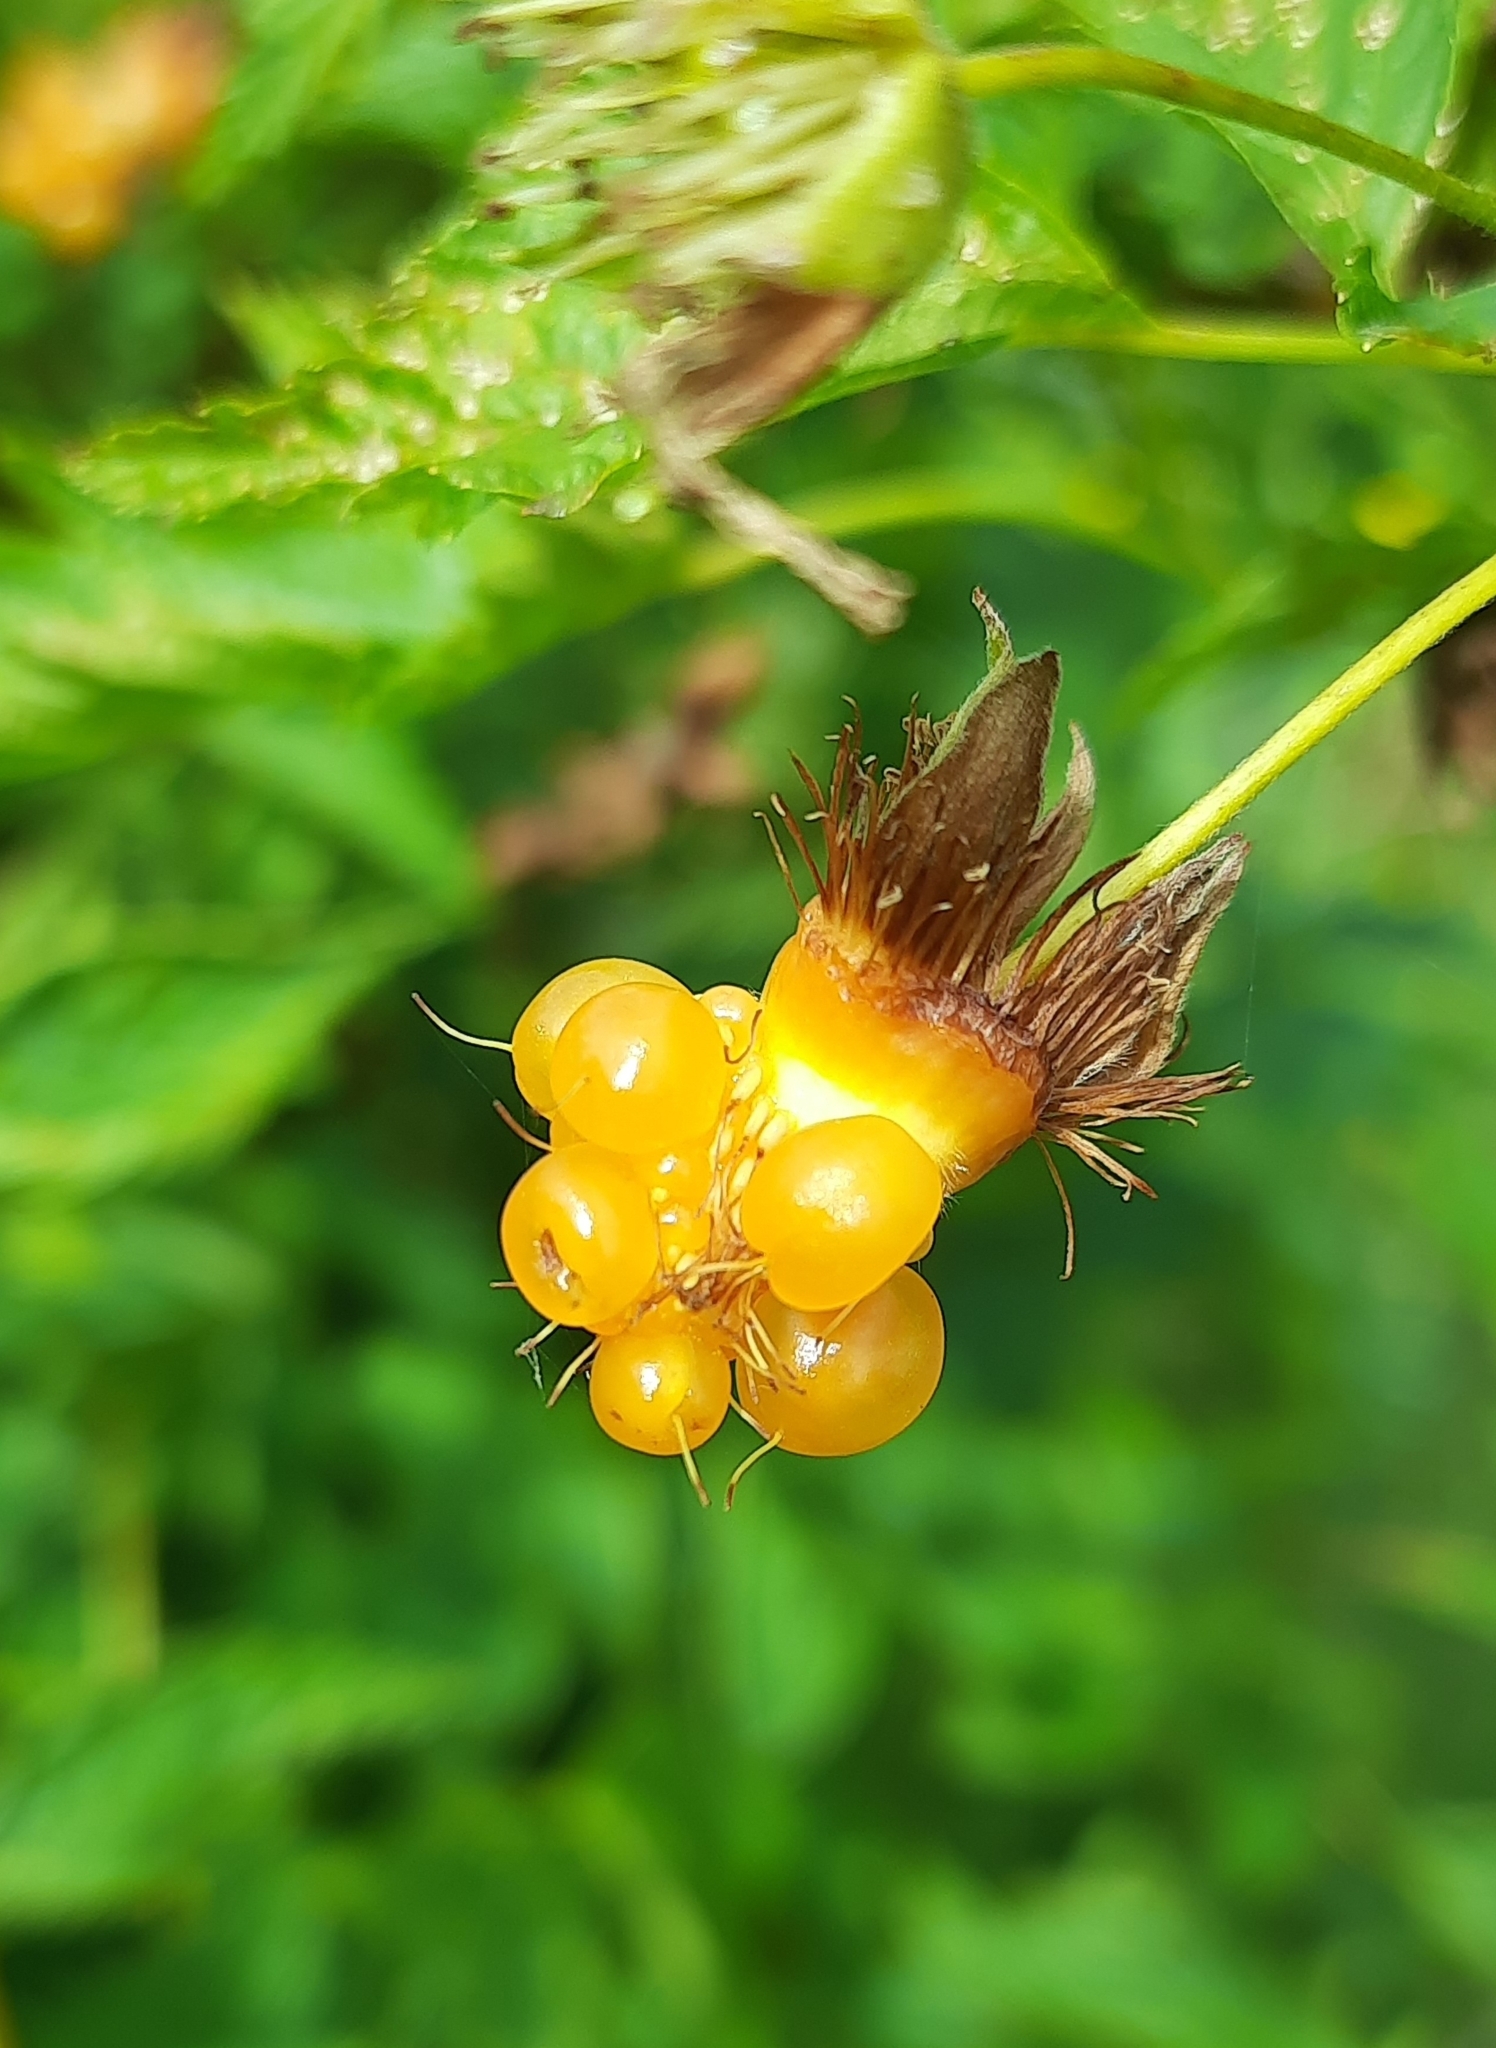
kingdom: Plantae
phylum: Tracheophyta
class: Magnoliopsida
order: Rosales
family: Rosaceae
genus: Rubus
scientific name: Rubus spectabilis
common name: Salmonberry
